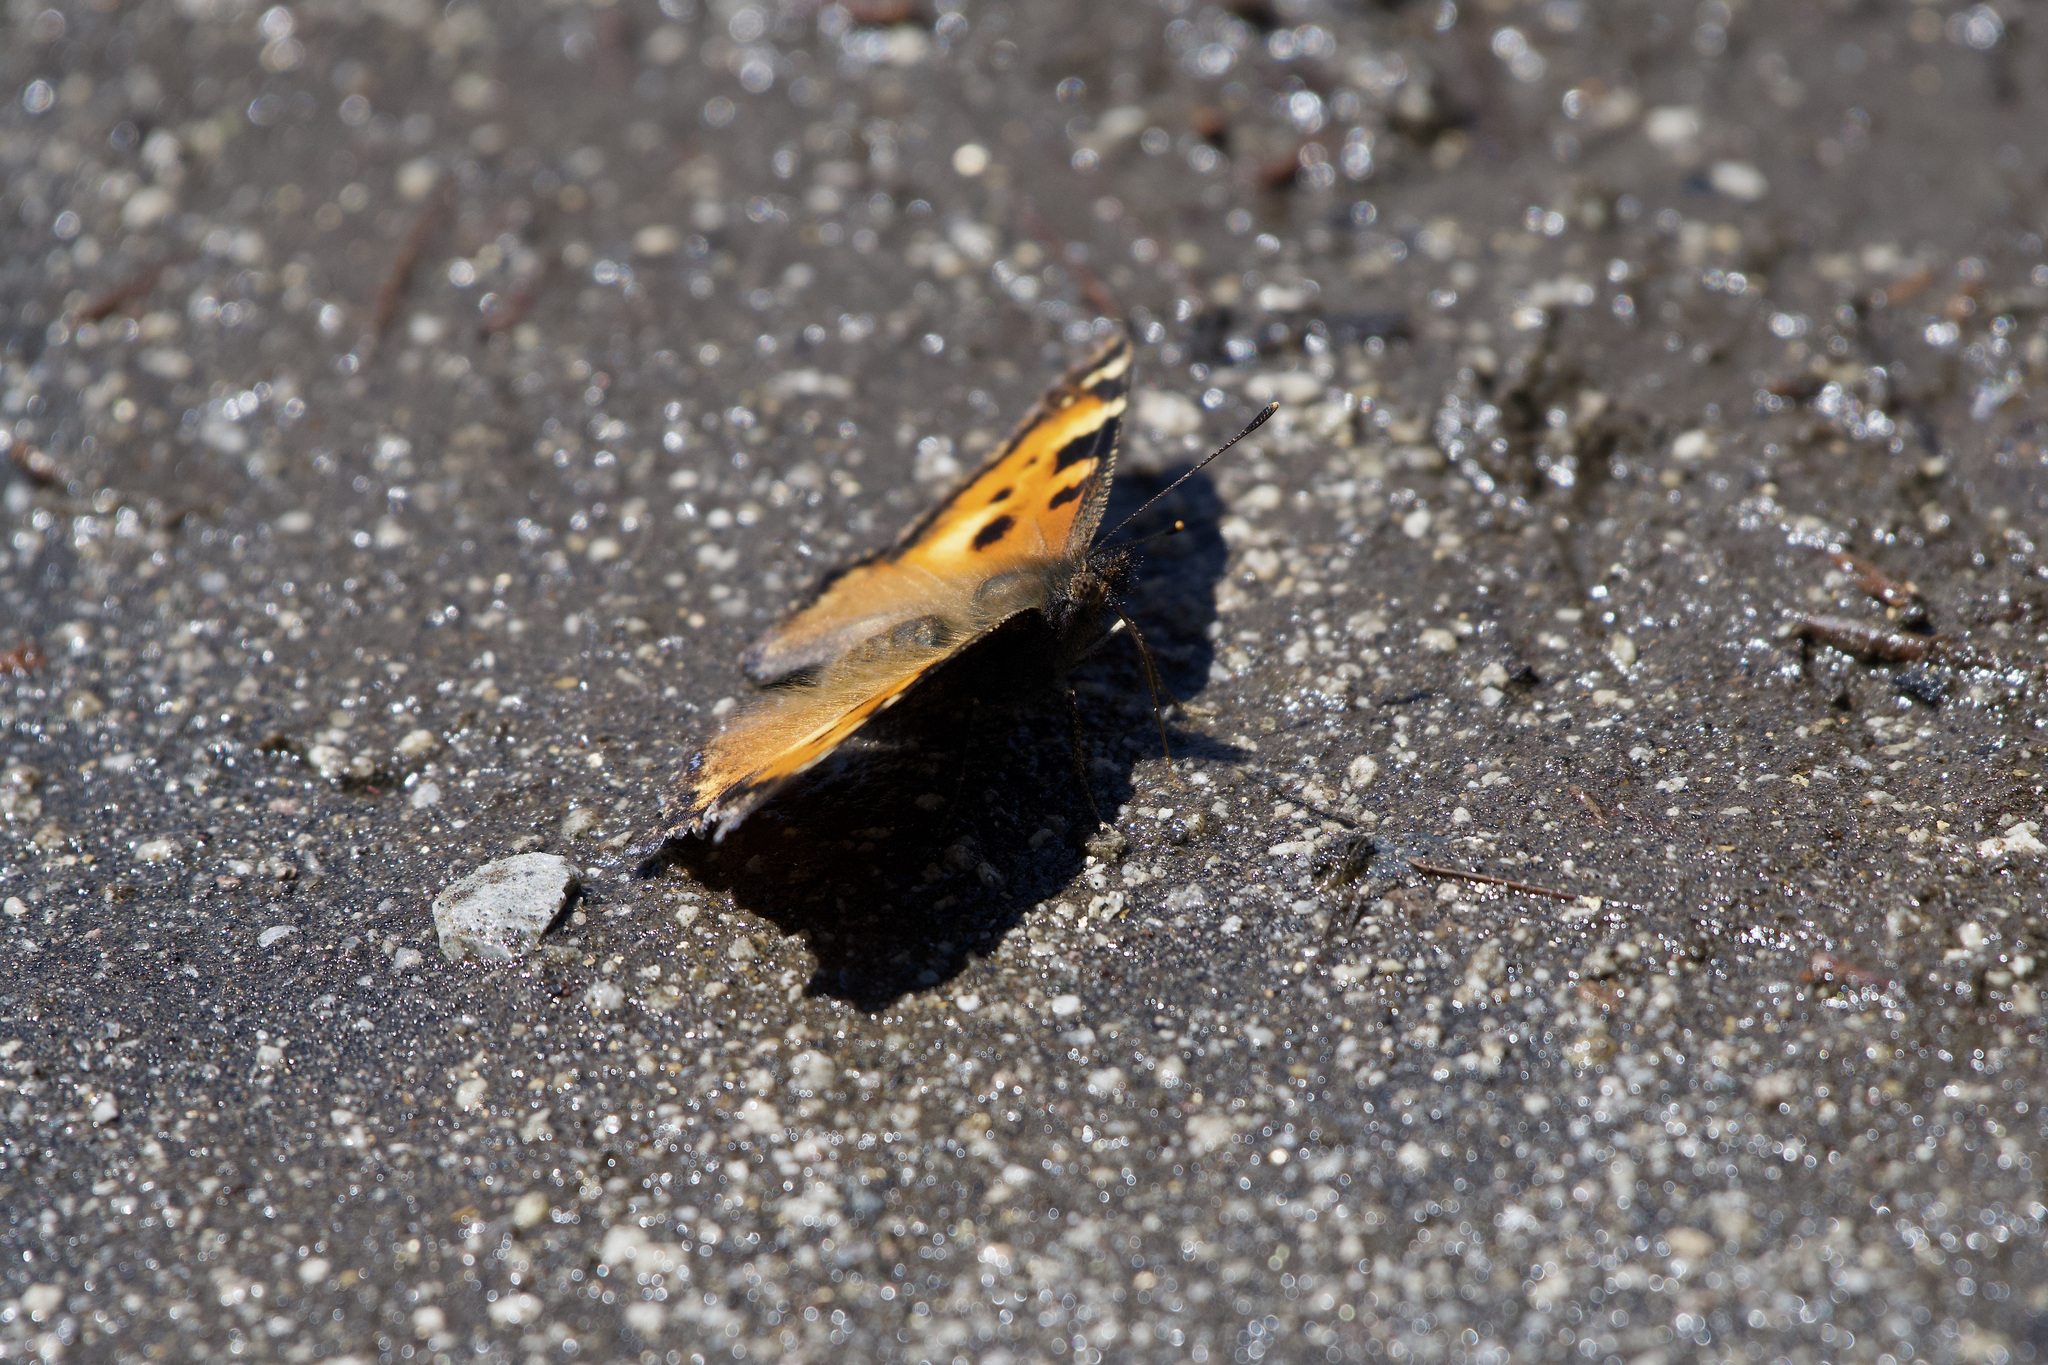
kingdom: Animalia
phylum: Arthropoda
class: Insecta
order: Lepidoptera
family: Nymphalidae
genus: Nymphalis
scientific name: Nymphalis californica
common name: California tortoiseshell
